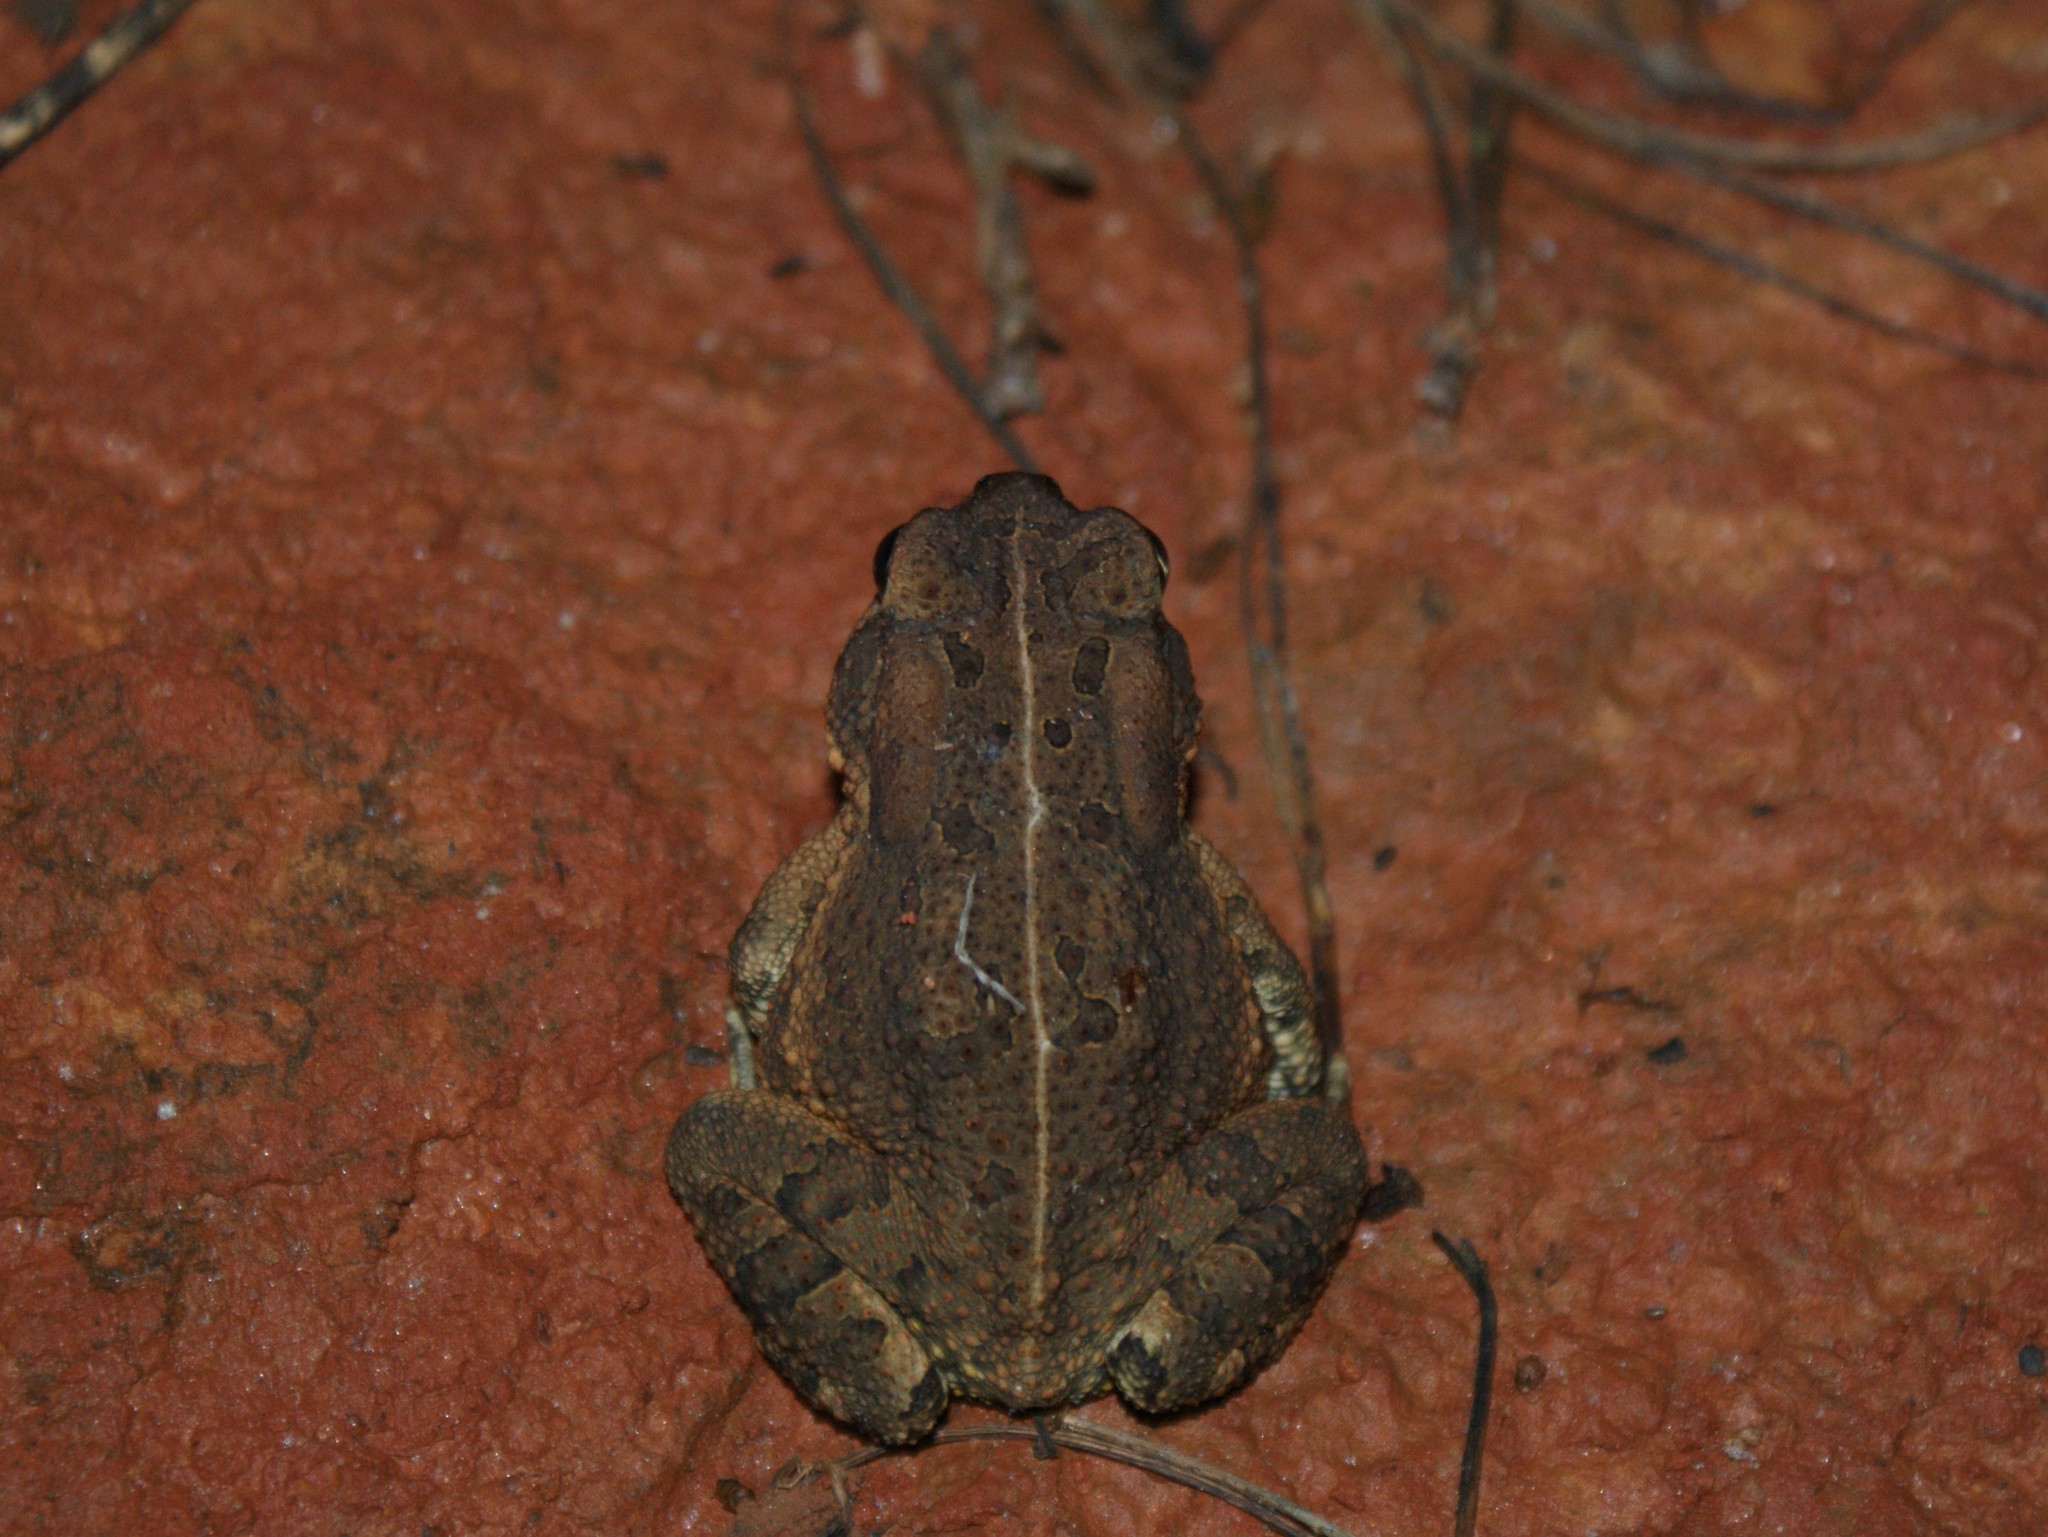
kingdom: Animalia
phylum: Chordata
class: Amphibia
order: Anura
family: Bufonidae
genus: Anaxyrus
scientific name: Anaxyrus fowleri
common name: Fowler's toad
